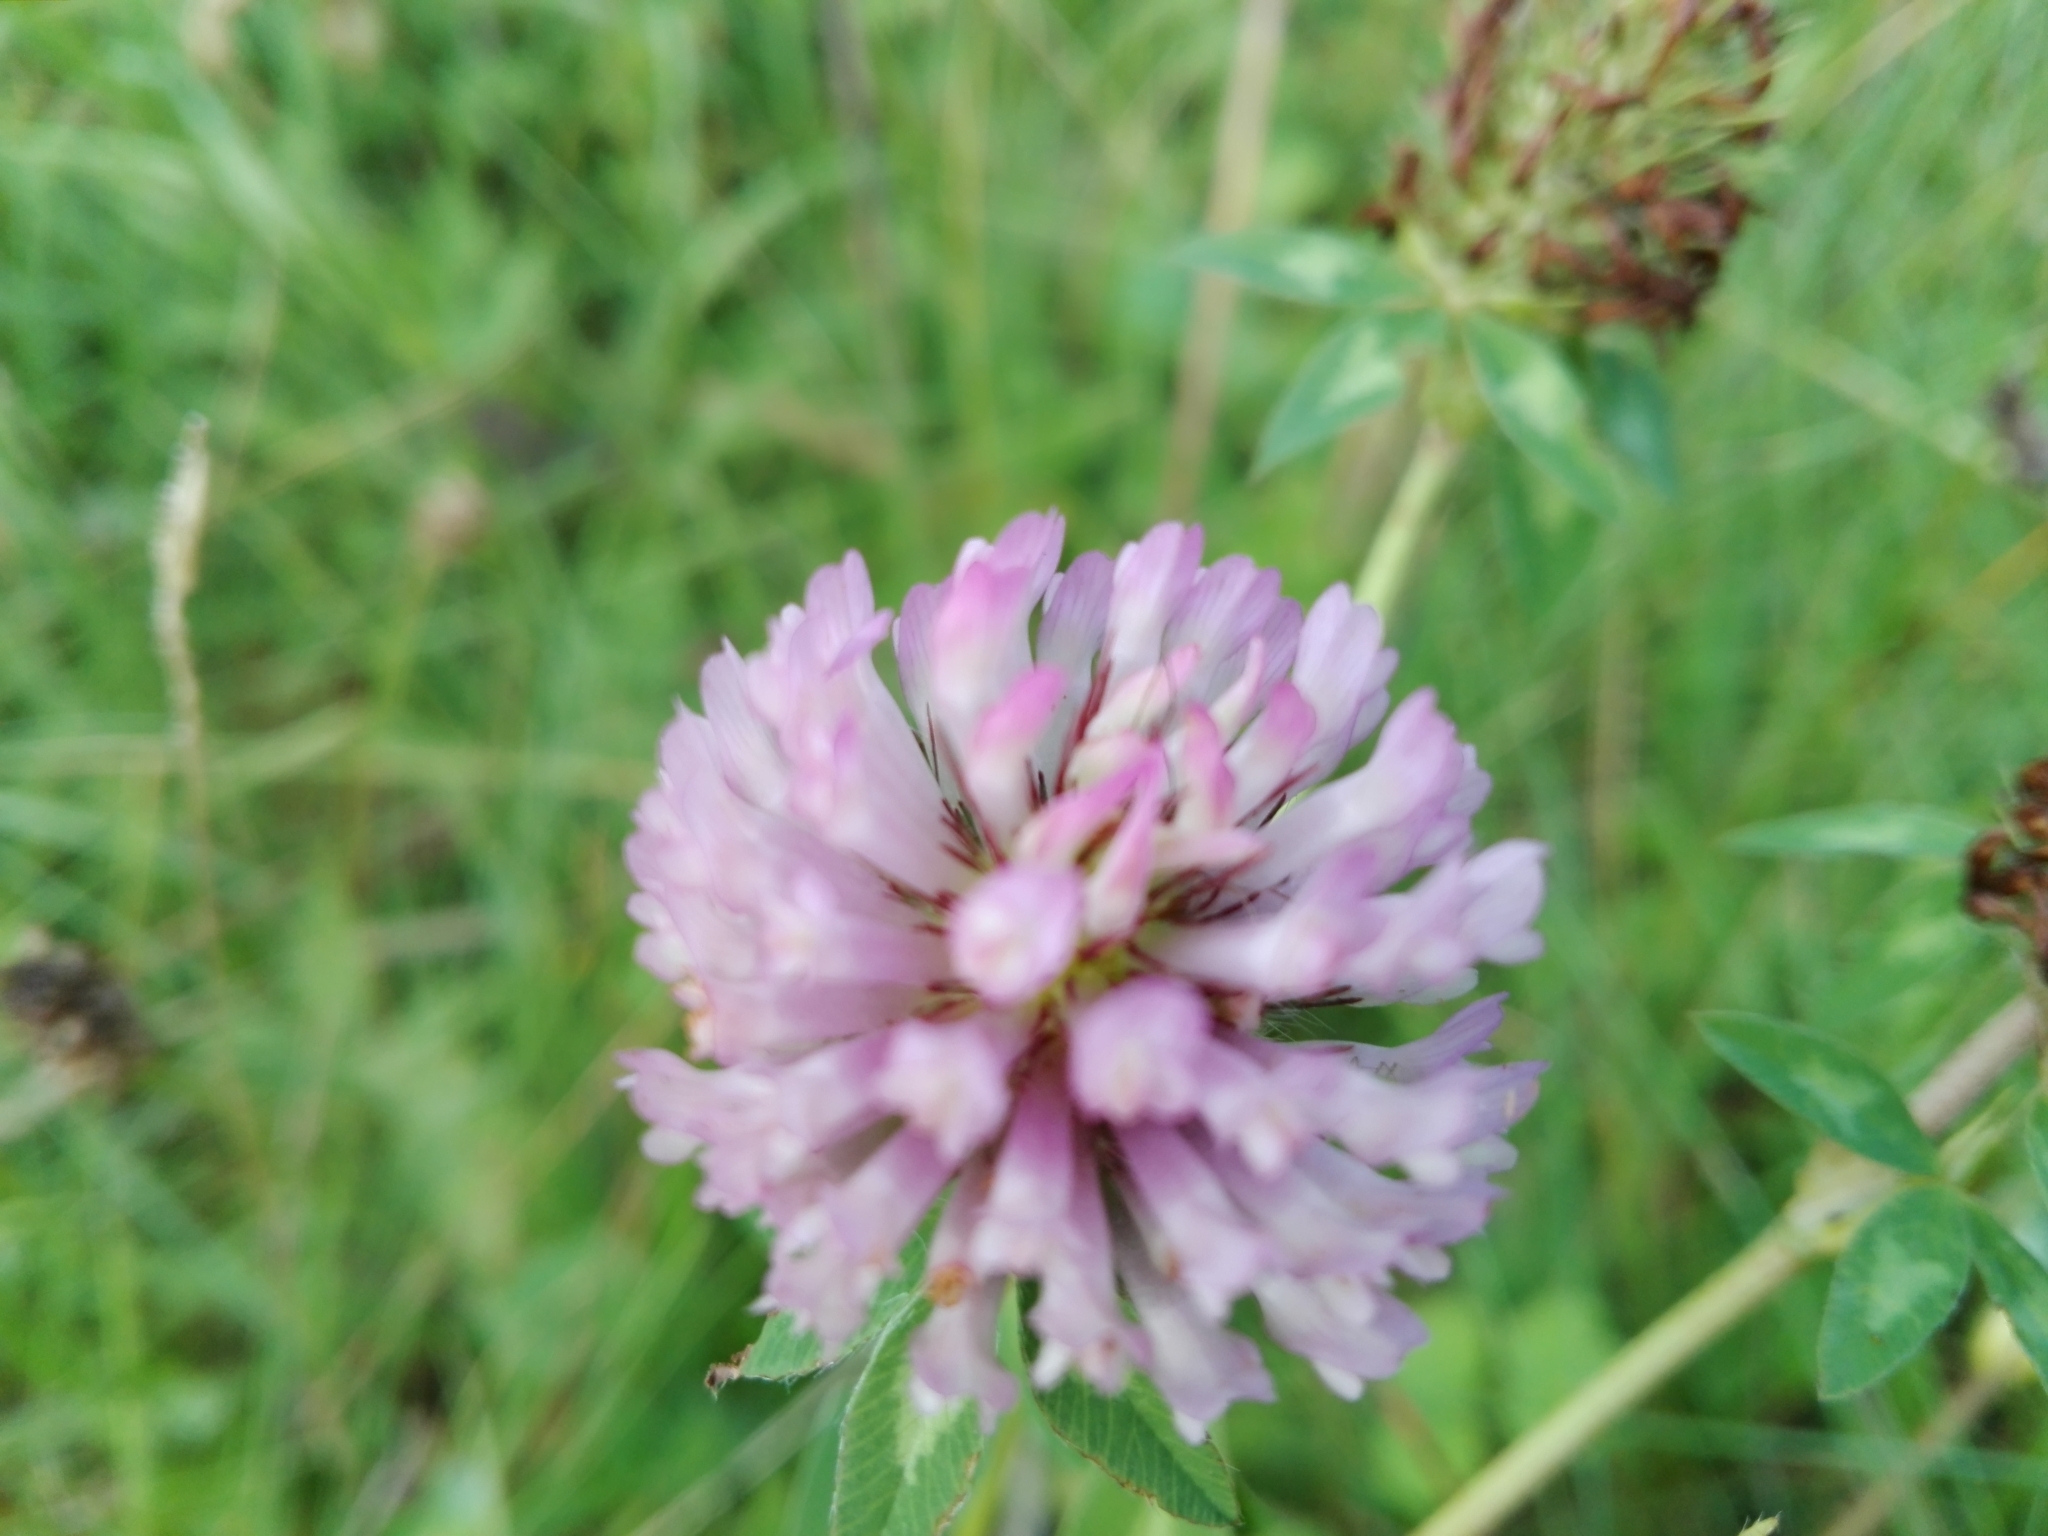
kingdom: Plantae
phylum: Tracheophyta
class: Magnoliopsida
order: Fabales
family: Fabaceae
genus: Trifolium
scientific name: Trifolium pratense
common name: Red clover
